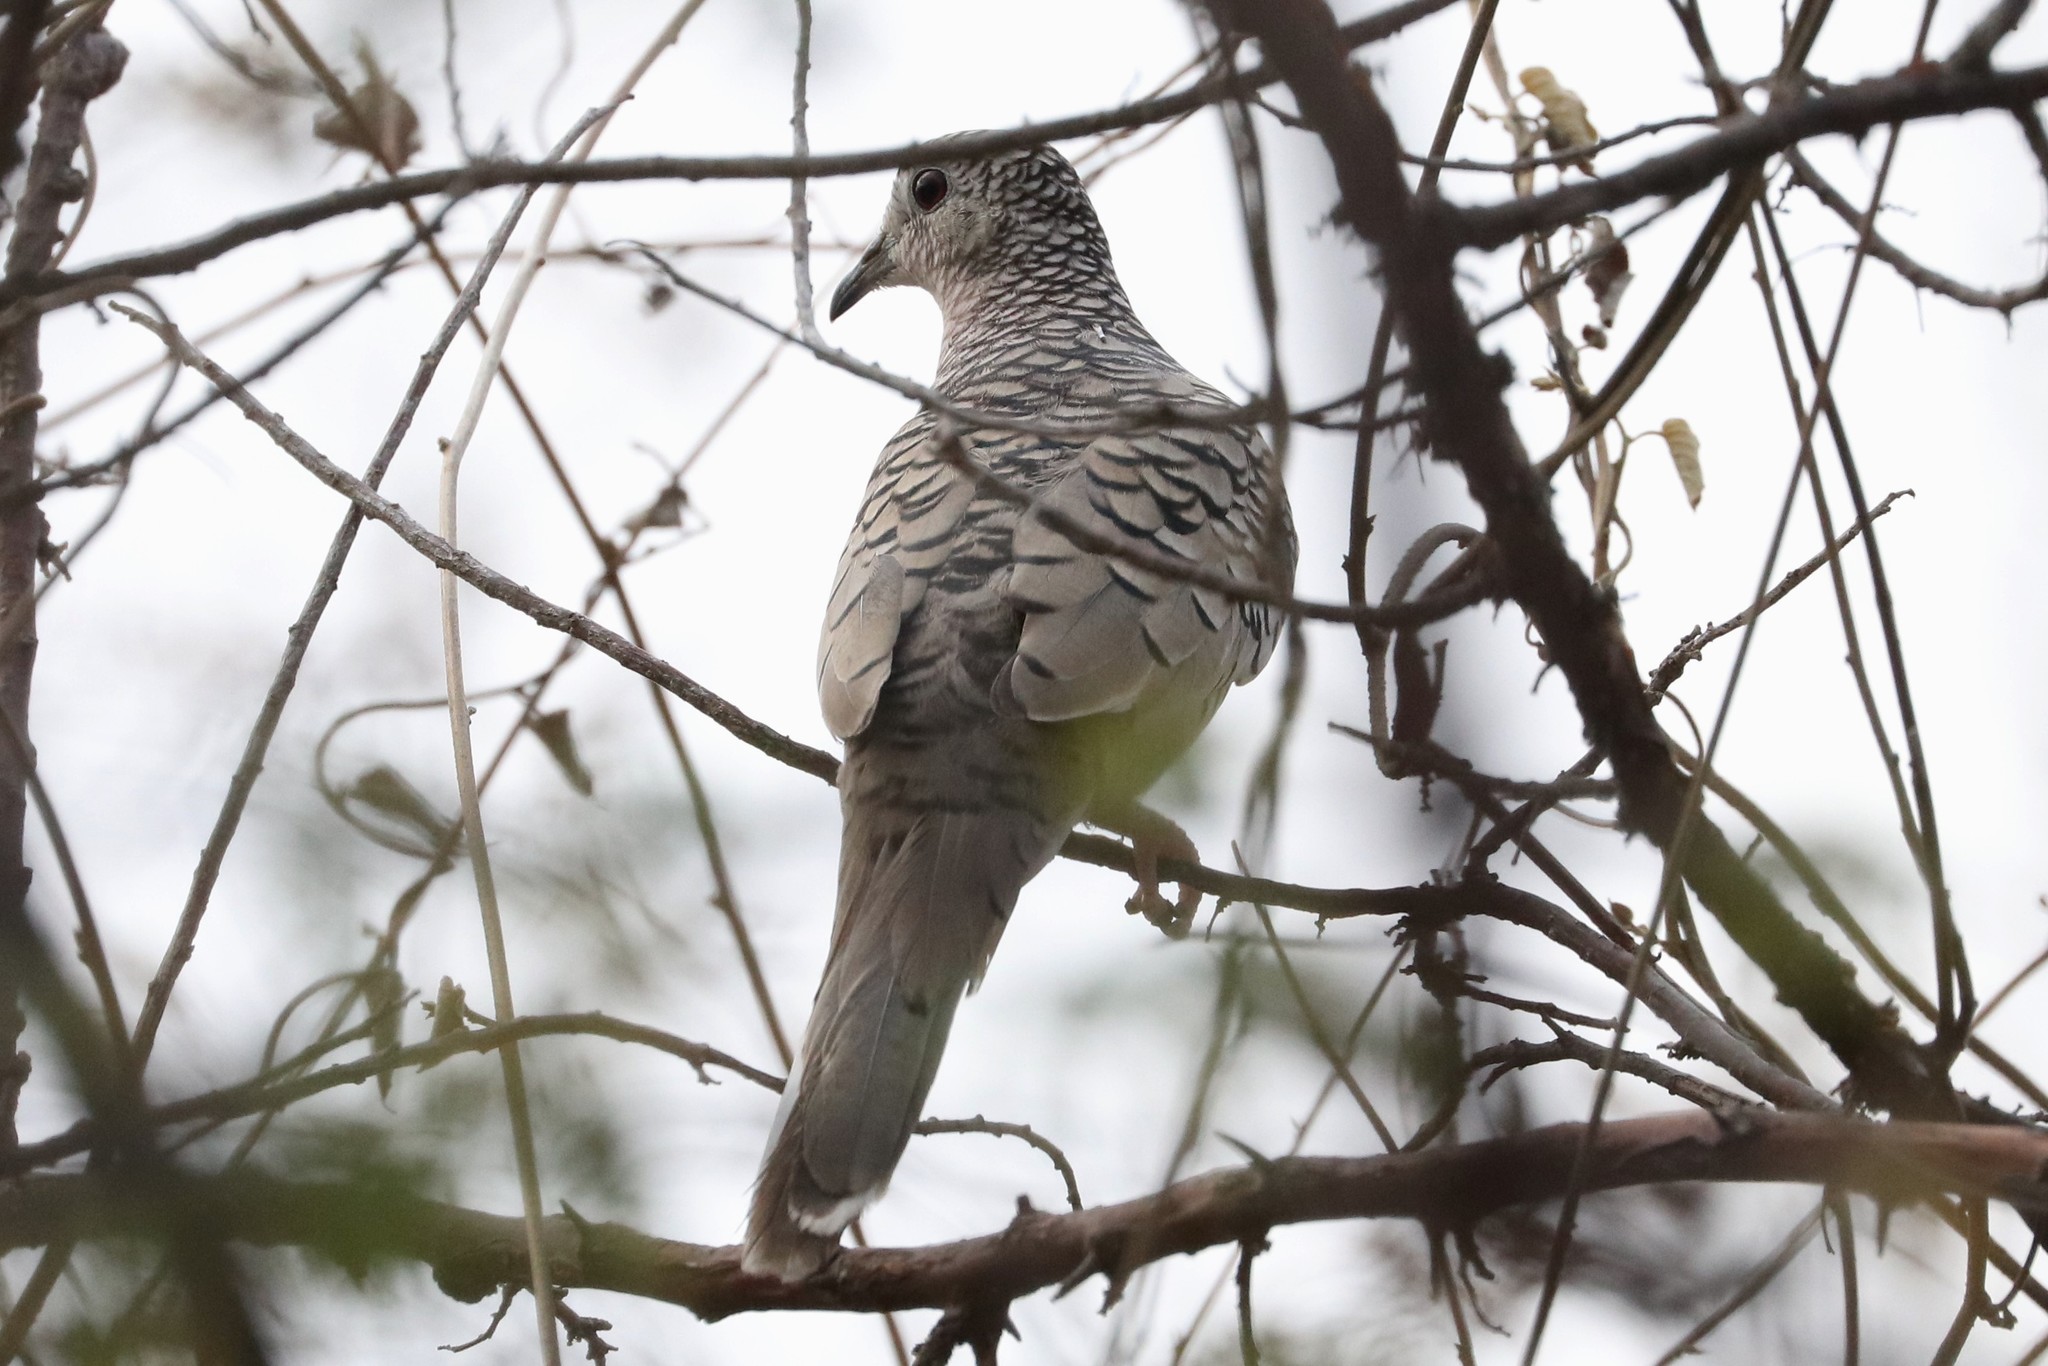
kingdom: Animalia
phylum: Chordata
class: Aves
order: Columbiformes
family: Columbidae
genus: Columbina
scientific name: Columbina squammata
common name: Scaled dove
